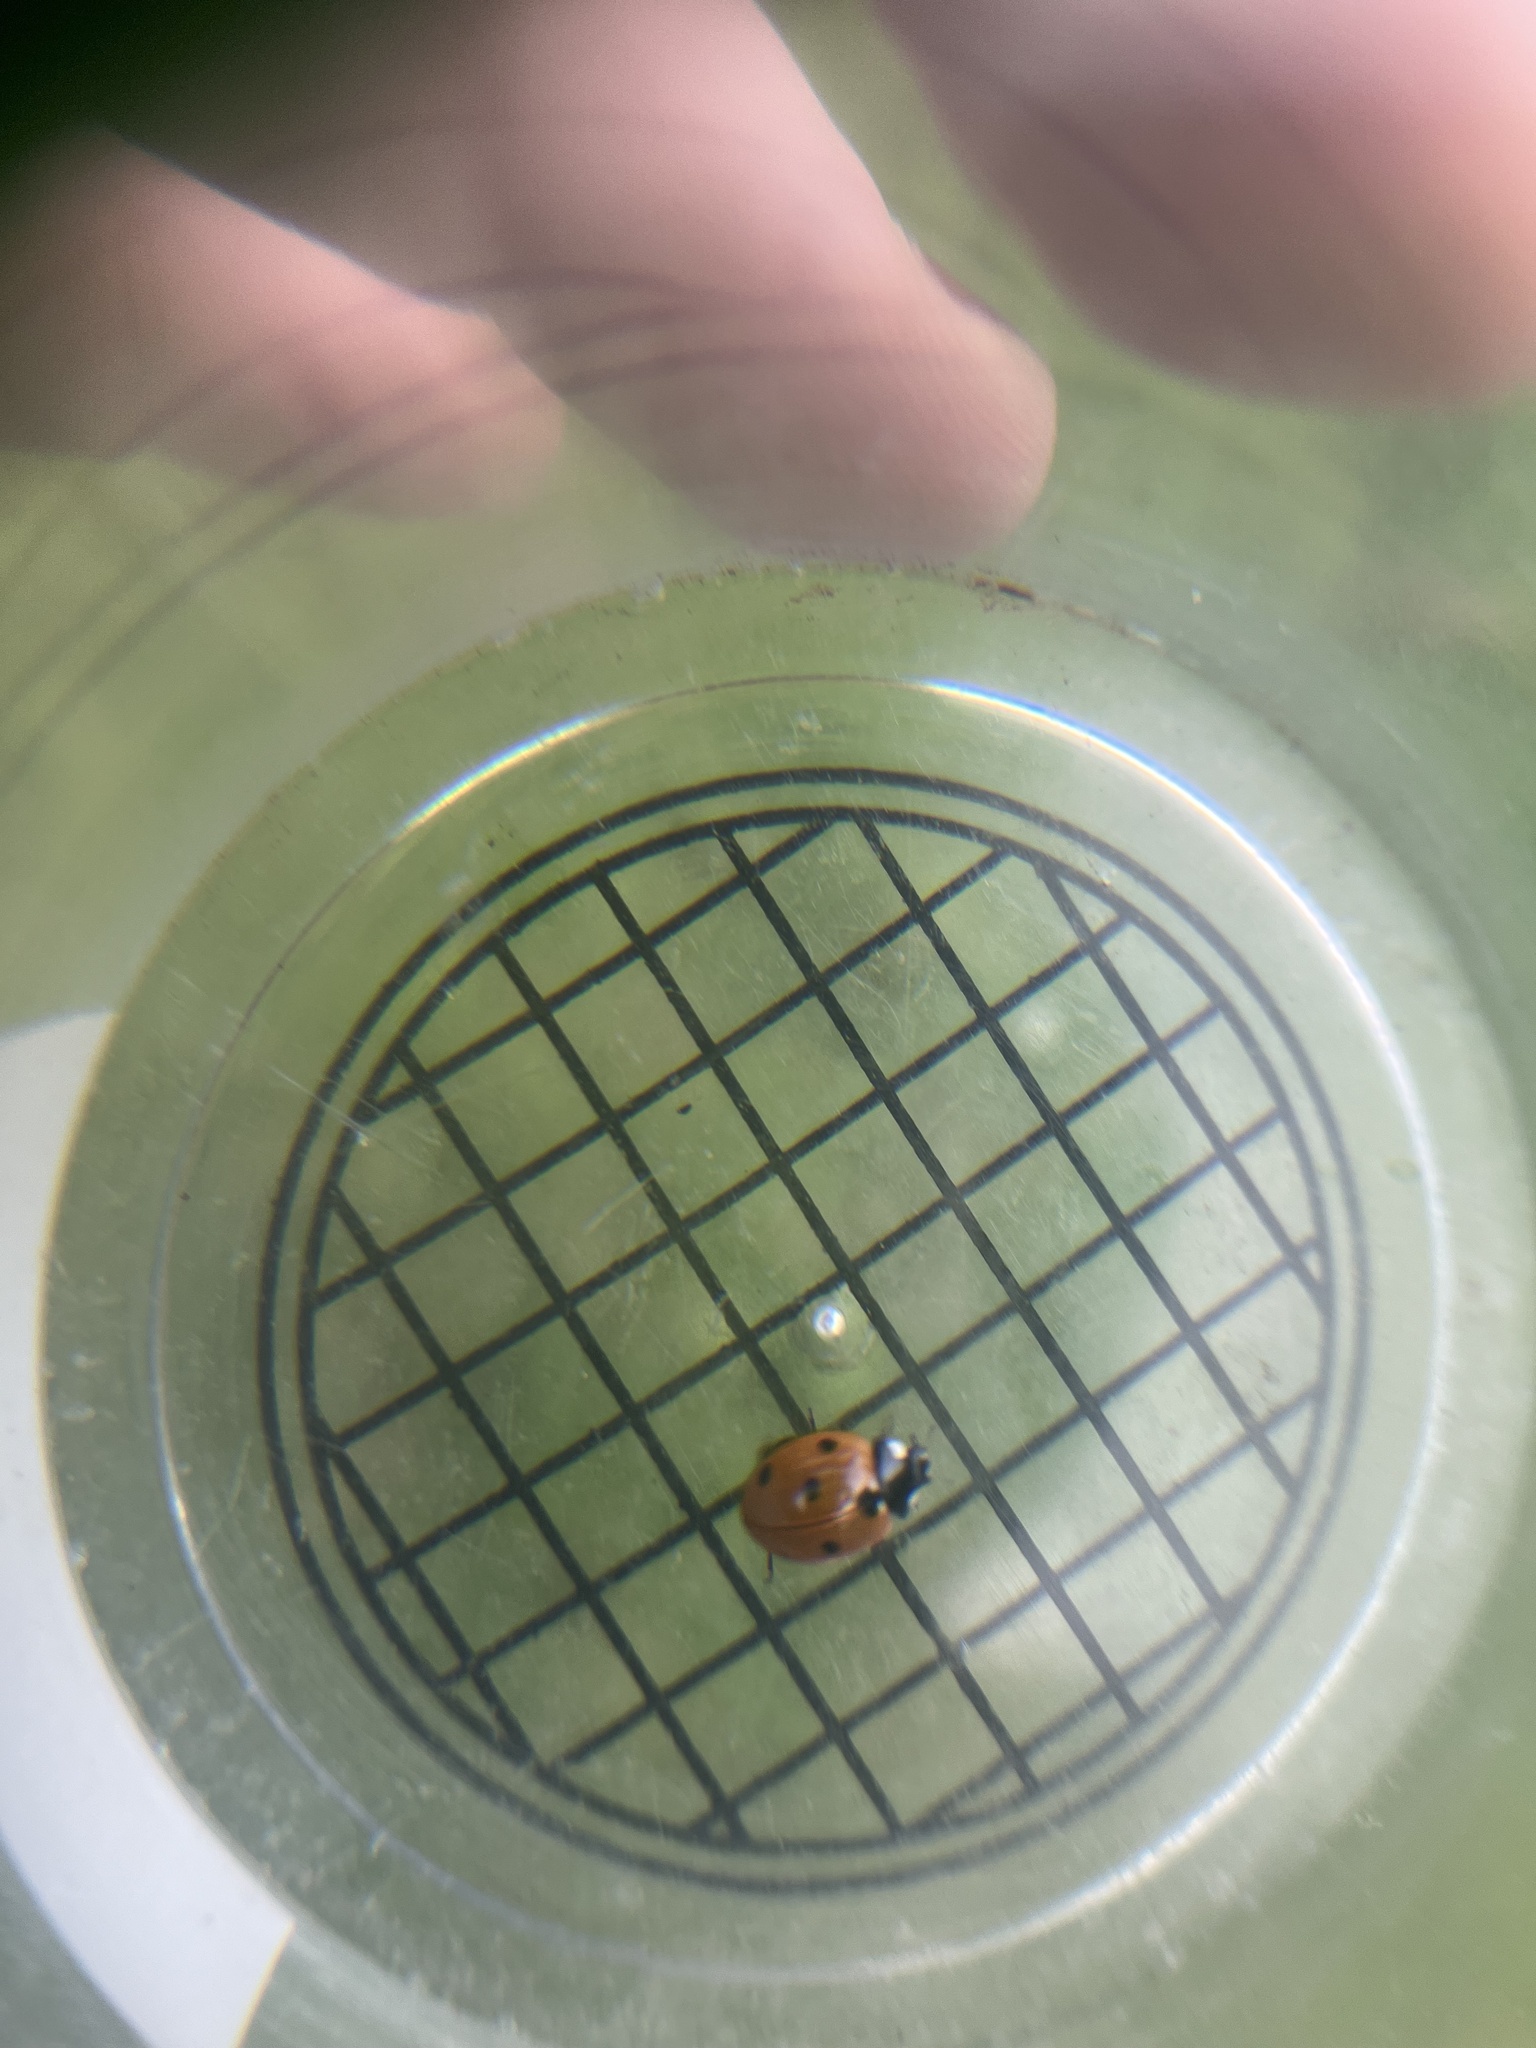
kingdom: Animalia
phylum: Arthropoda
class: Insecta
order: Coleoptera
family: Coccinellidae
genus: Coccinella
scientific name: Coccinella septempunctata
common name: Sevenspotted lady beetle
